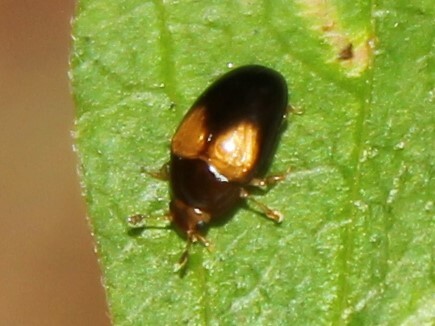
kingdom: Animalia
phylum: Arthropoda
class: Insecta
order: Coleoptera
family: Erotylidae
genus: Tritoma
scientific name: Tritoma biguttata
